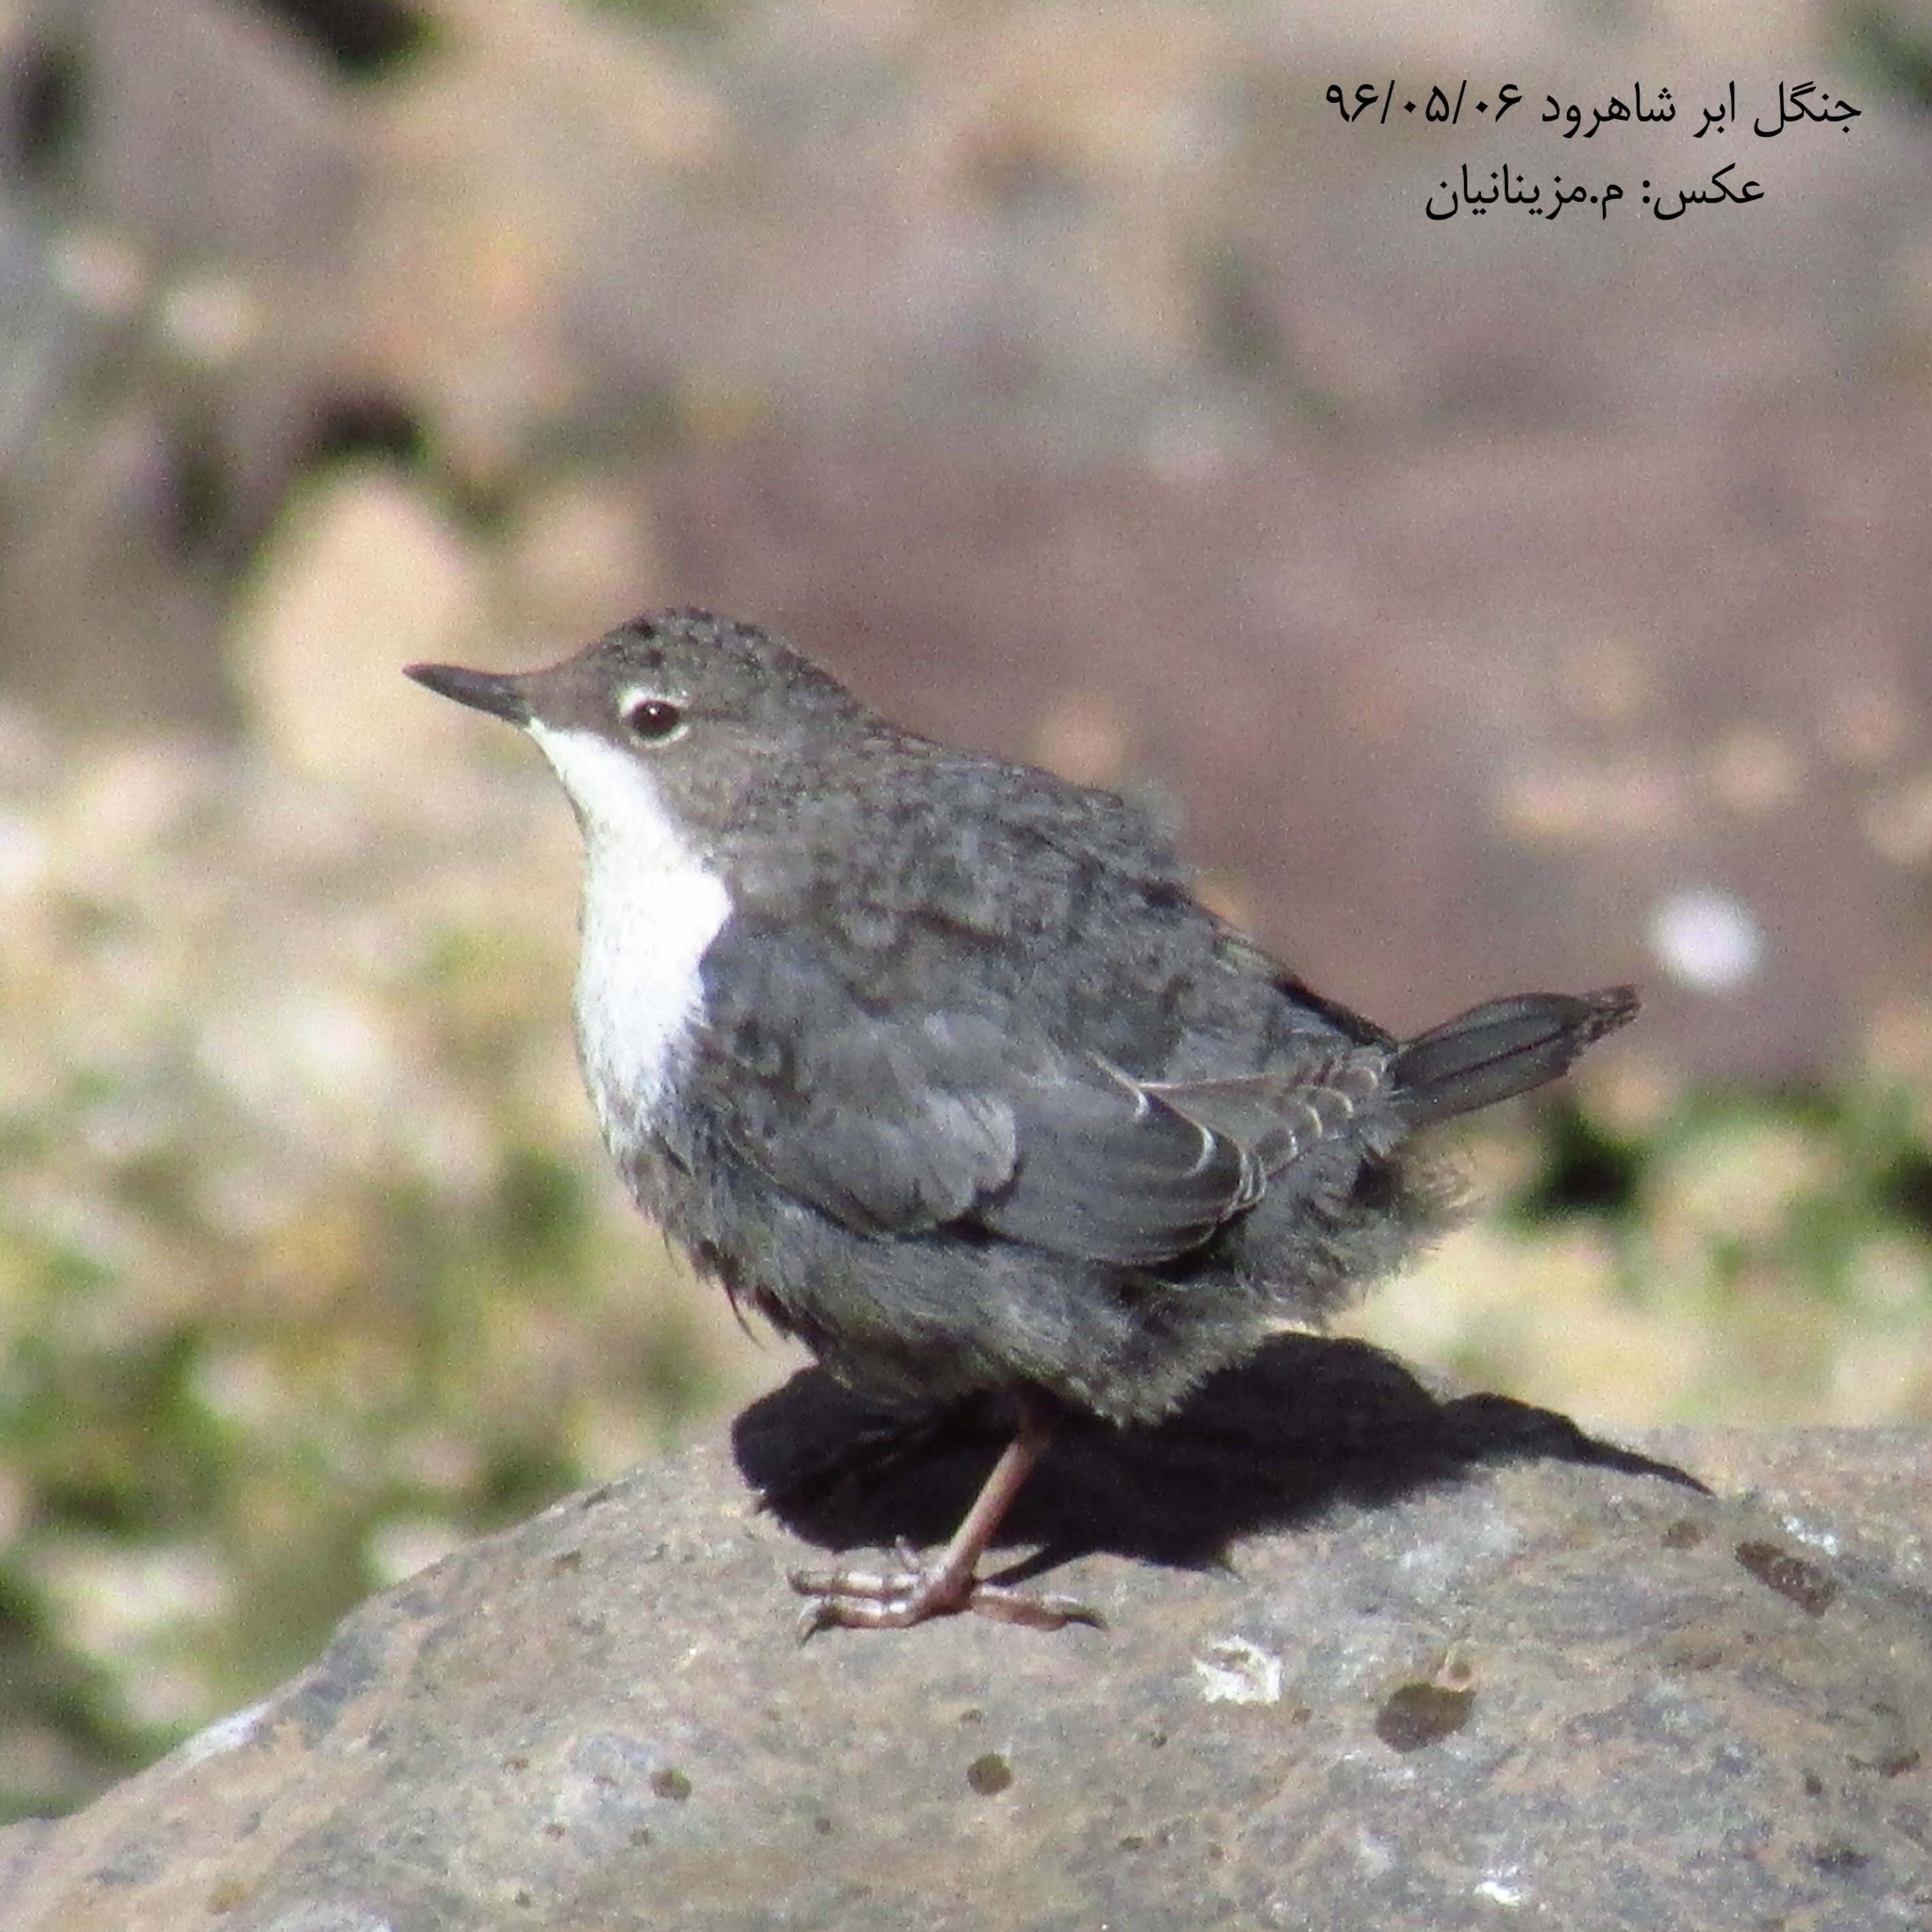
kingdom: Animalia
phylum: Chordata
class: Aves
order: Passeriformes
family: Cinclidae
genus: Cinclus
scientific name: Cinclus cinclus
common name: White-throated dipper
